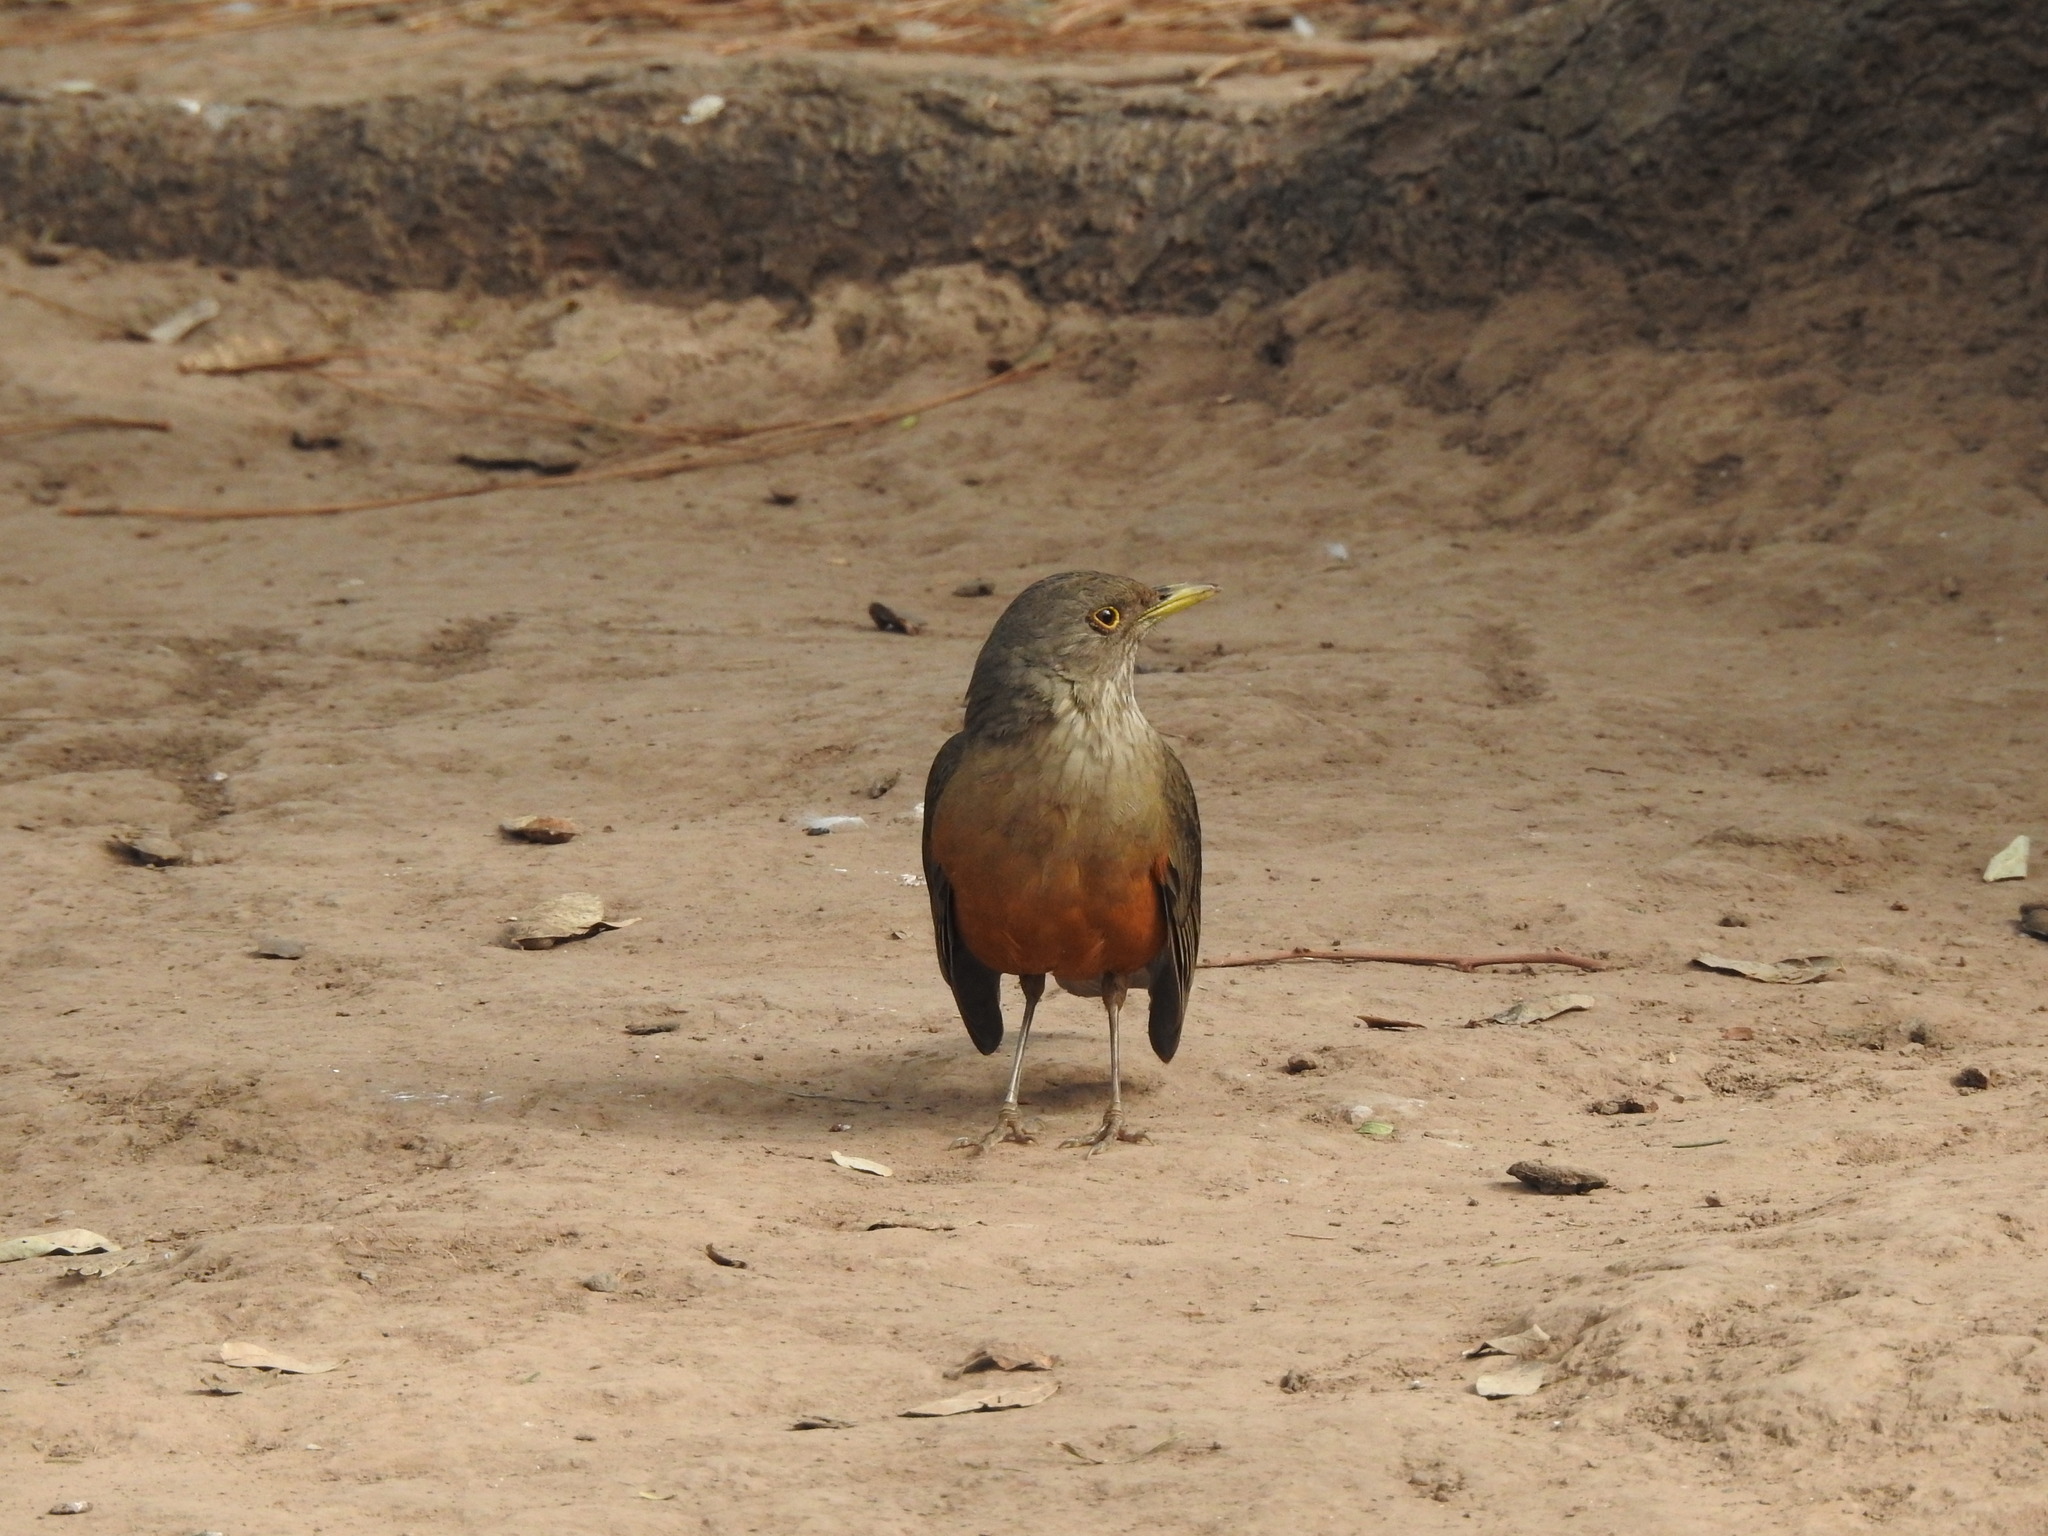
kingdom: Animalia
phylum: Chordata
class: Aves
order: Passeriformes
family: Turdidae
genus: Turdus
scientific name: Turdus rufiventris
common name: Rufous-bellied thrush
